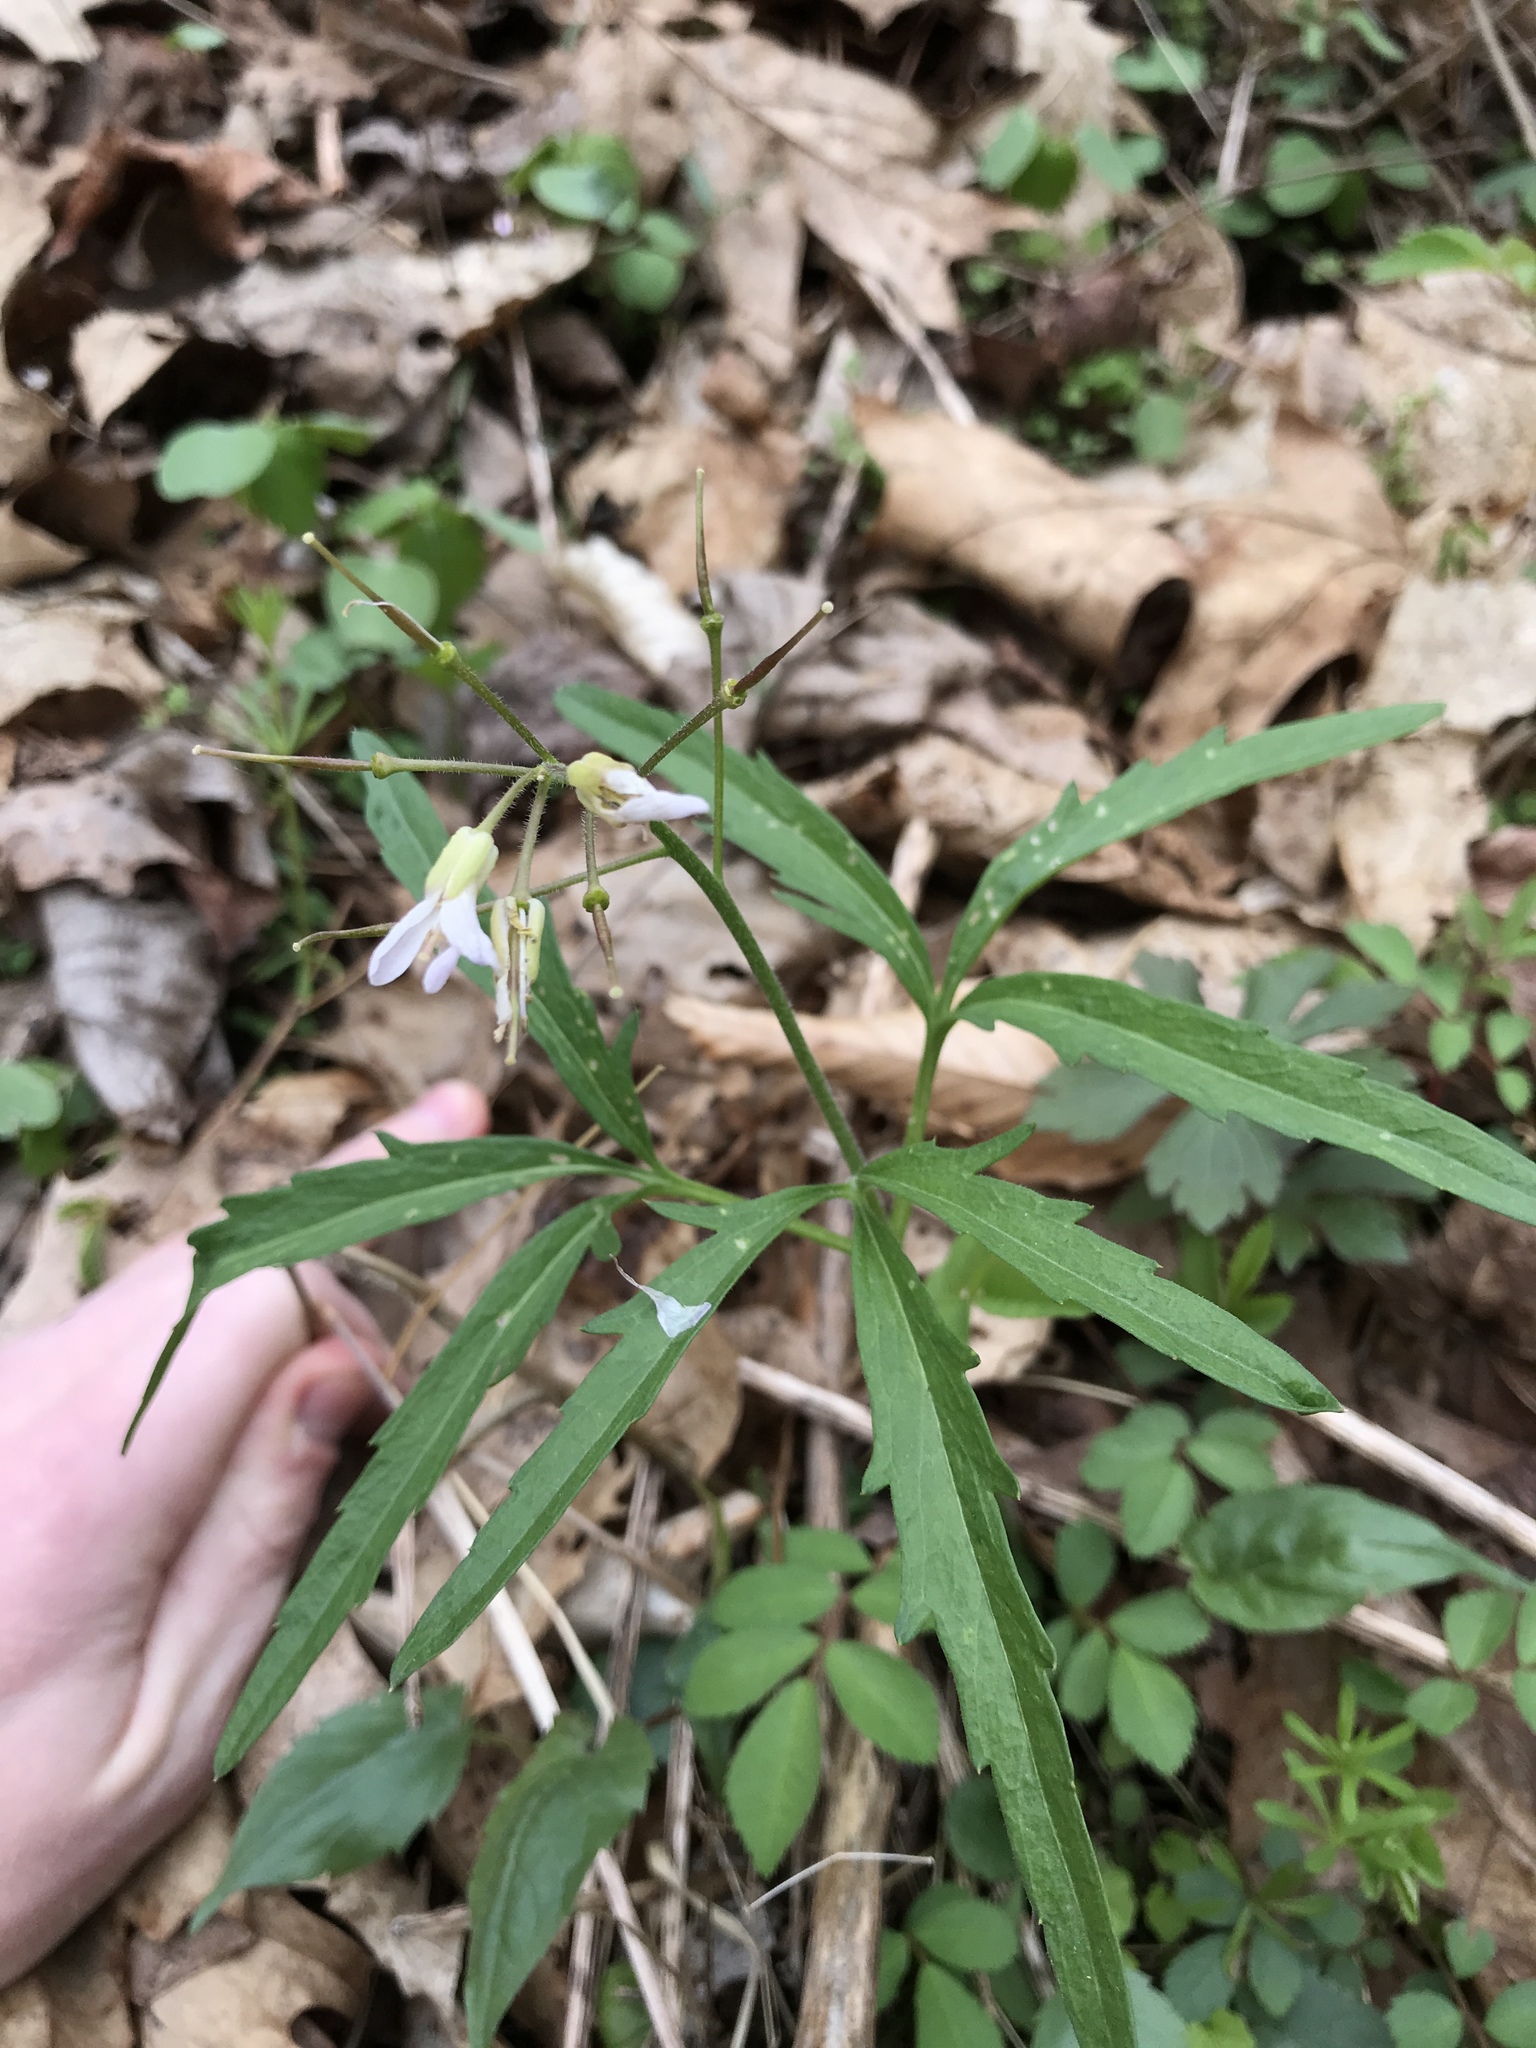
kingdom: Plantae
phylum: Tracheophyta
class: Magnoliopsida
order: Brassicales
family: Brassicaceae
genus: Cardamine
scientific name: Cardamine concatenata
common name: Cut-leaf toothcup
